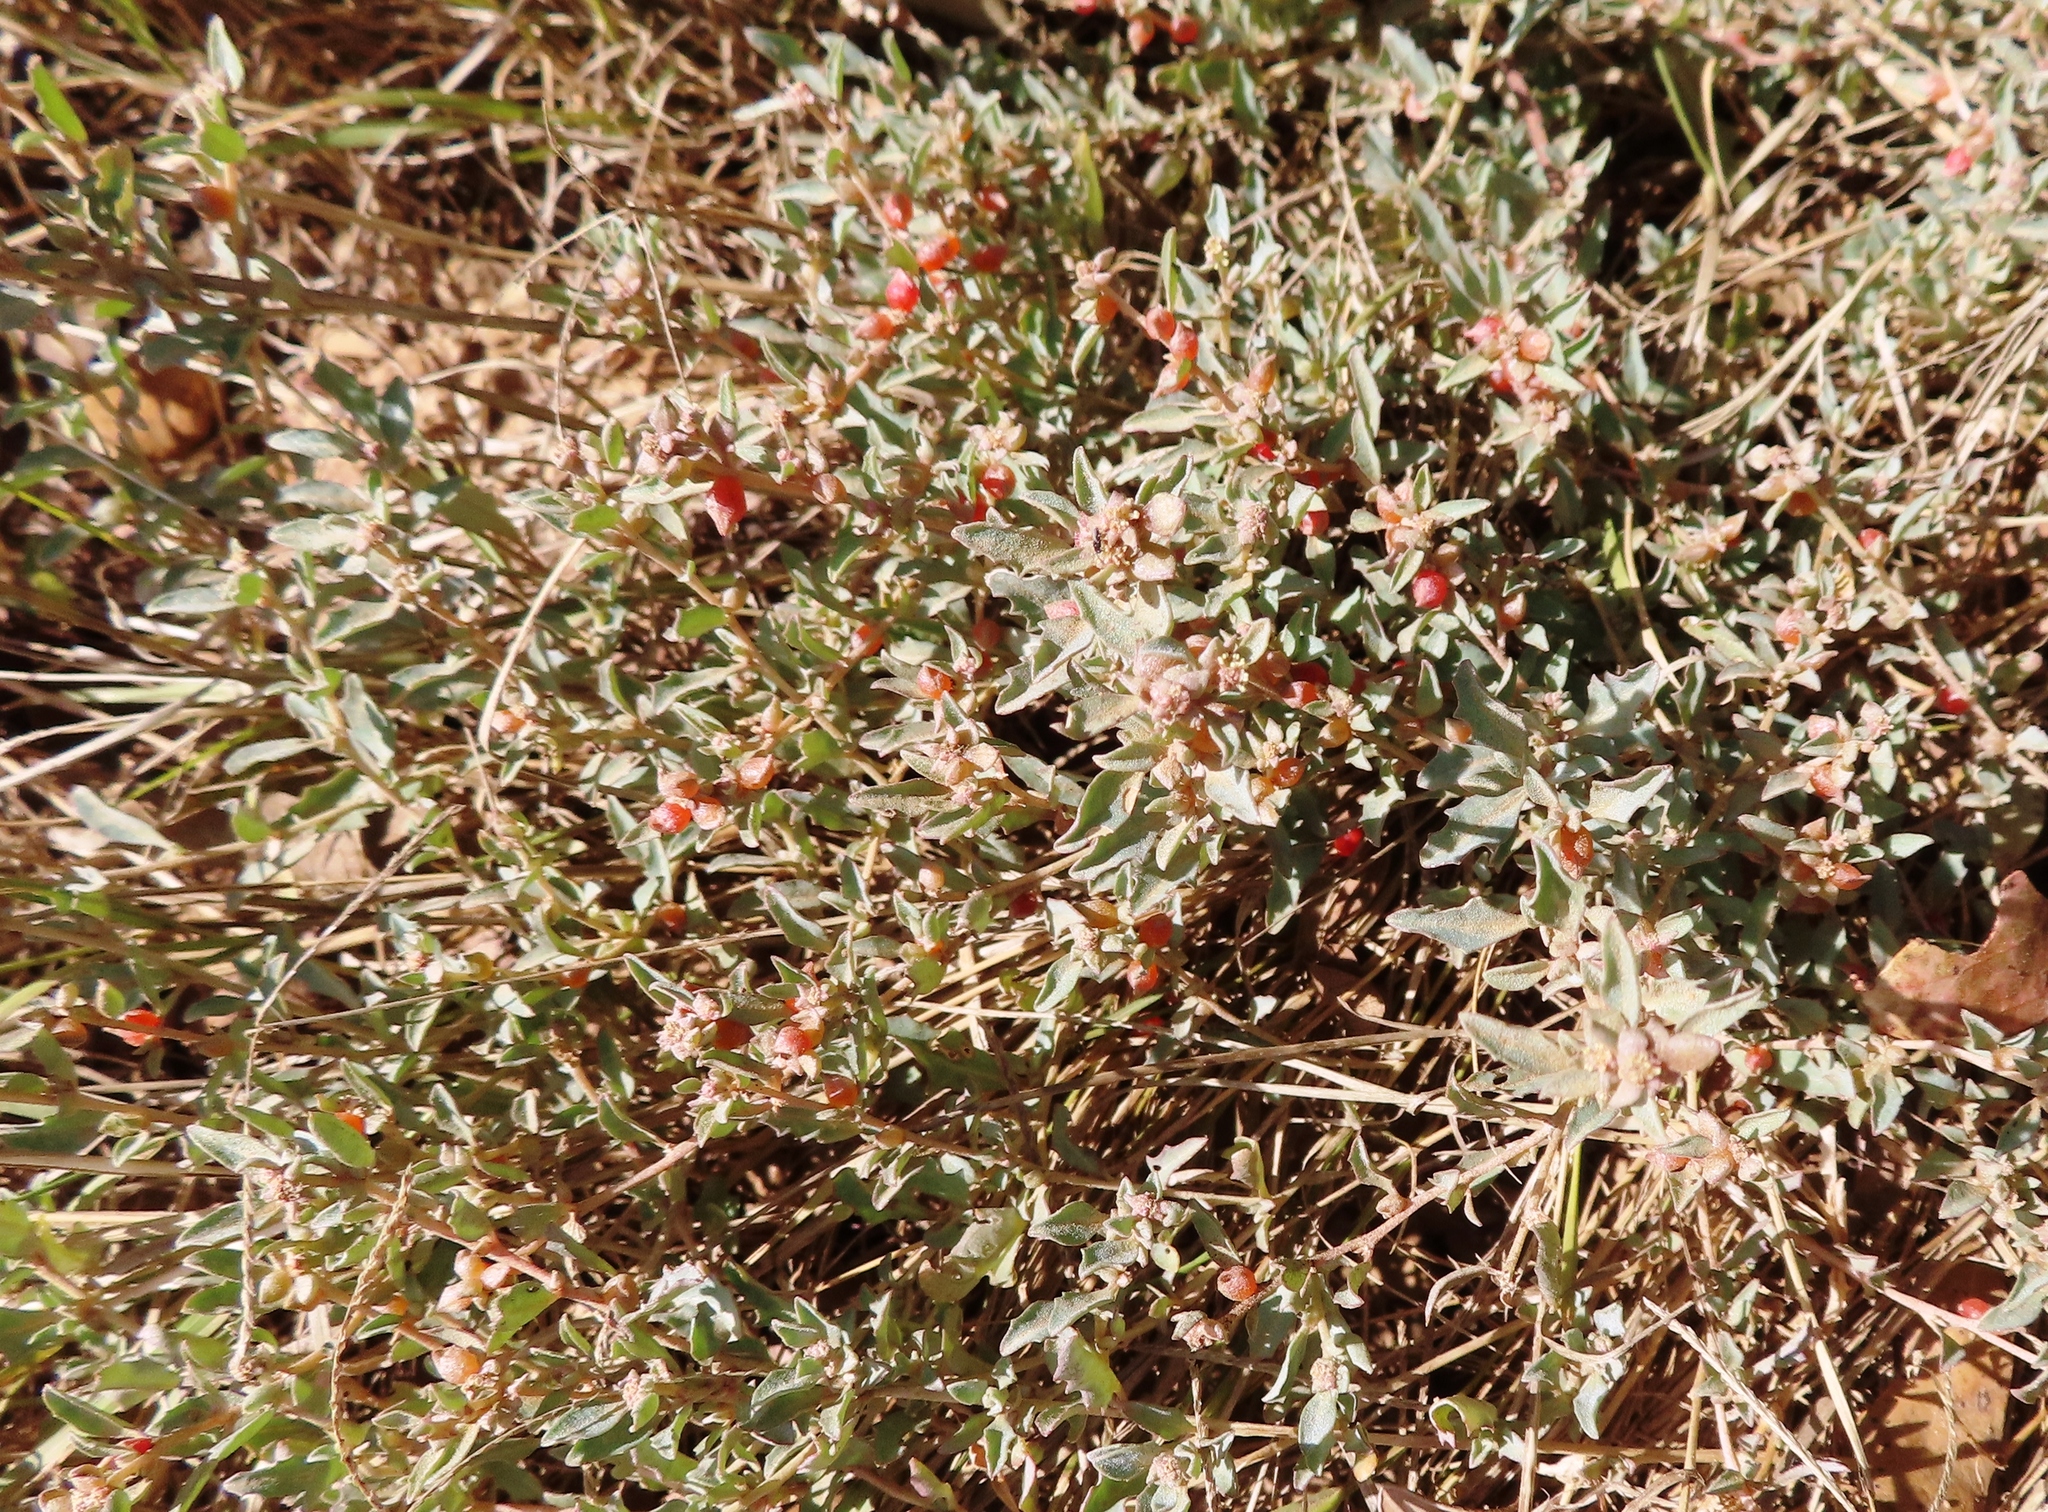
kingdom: Plantae
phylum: Tracheophyta
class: Magnoliopsida
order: Caryophyllales
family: Amaranthaceae
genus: Atriplex
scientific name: Atriplex semibaccata
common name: Australian saltbush
